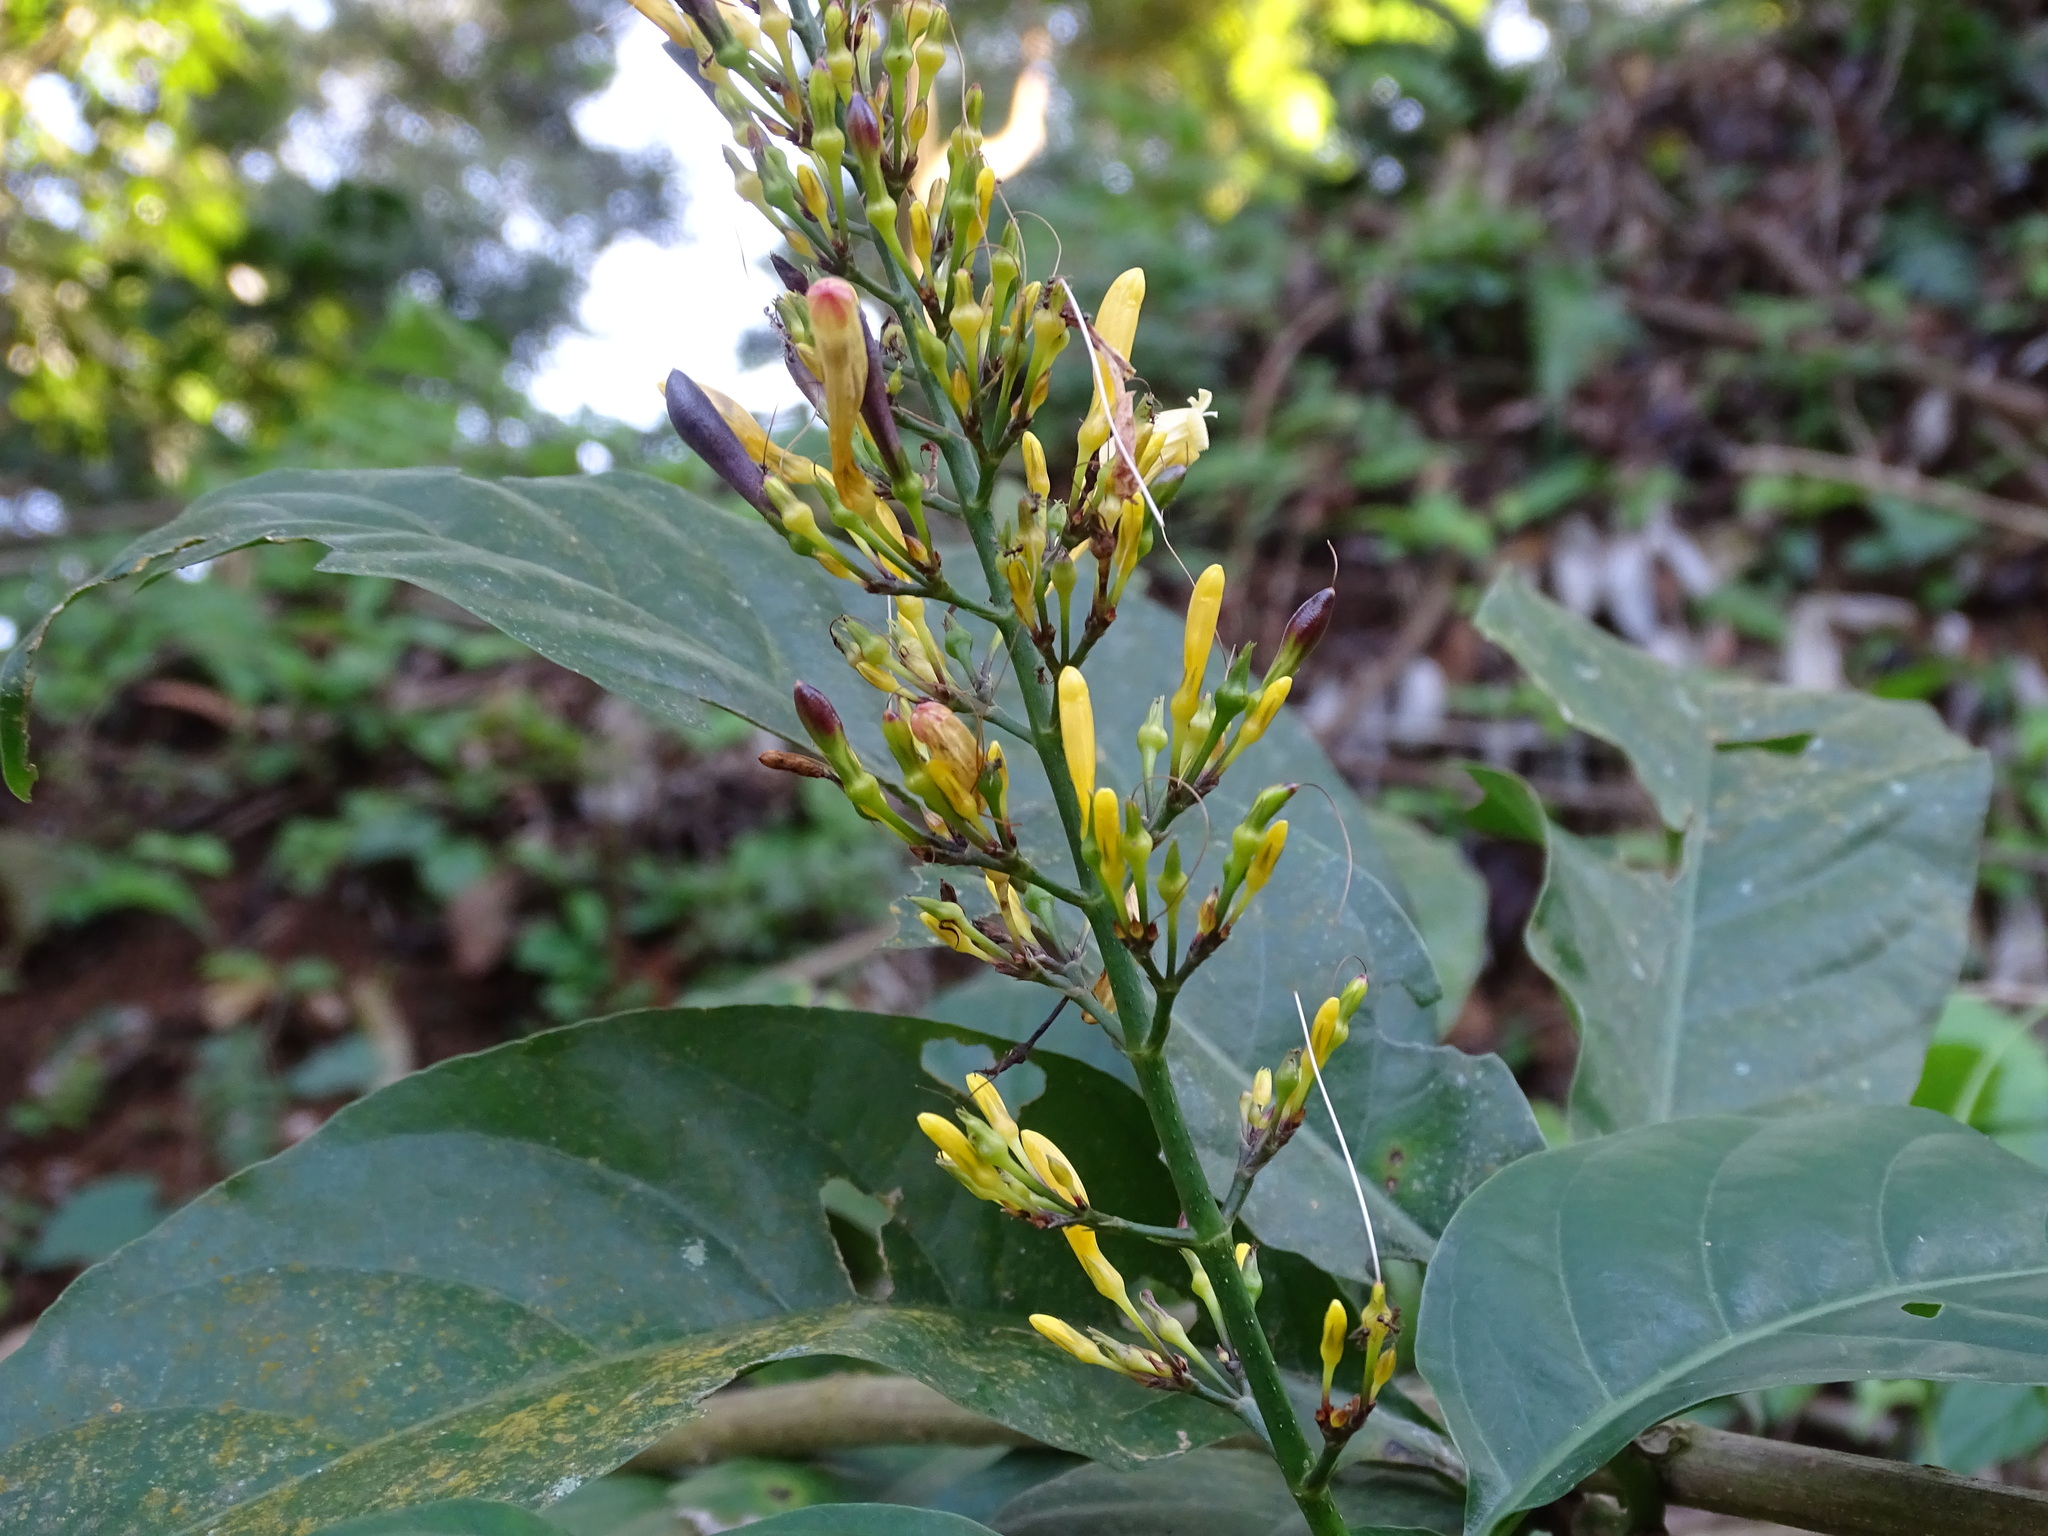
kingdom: Plantae
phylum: Tracheophyta
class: Magnoliopsida
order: Lamiales
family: Acanthaceae
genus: Odontonema
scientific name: Odontonema glabrum
